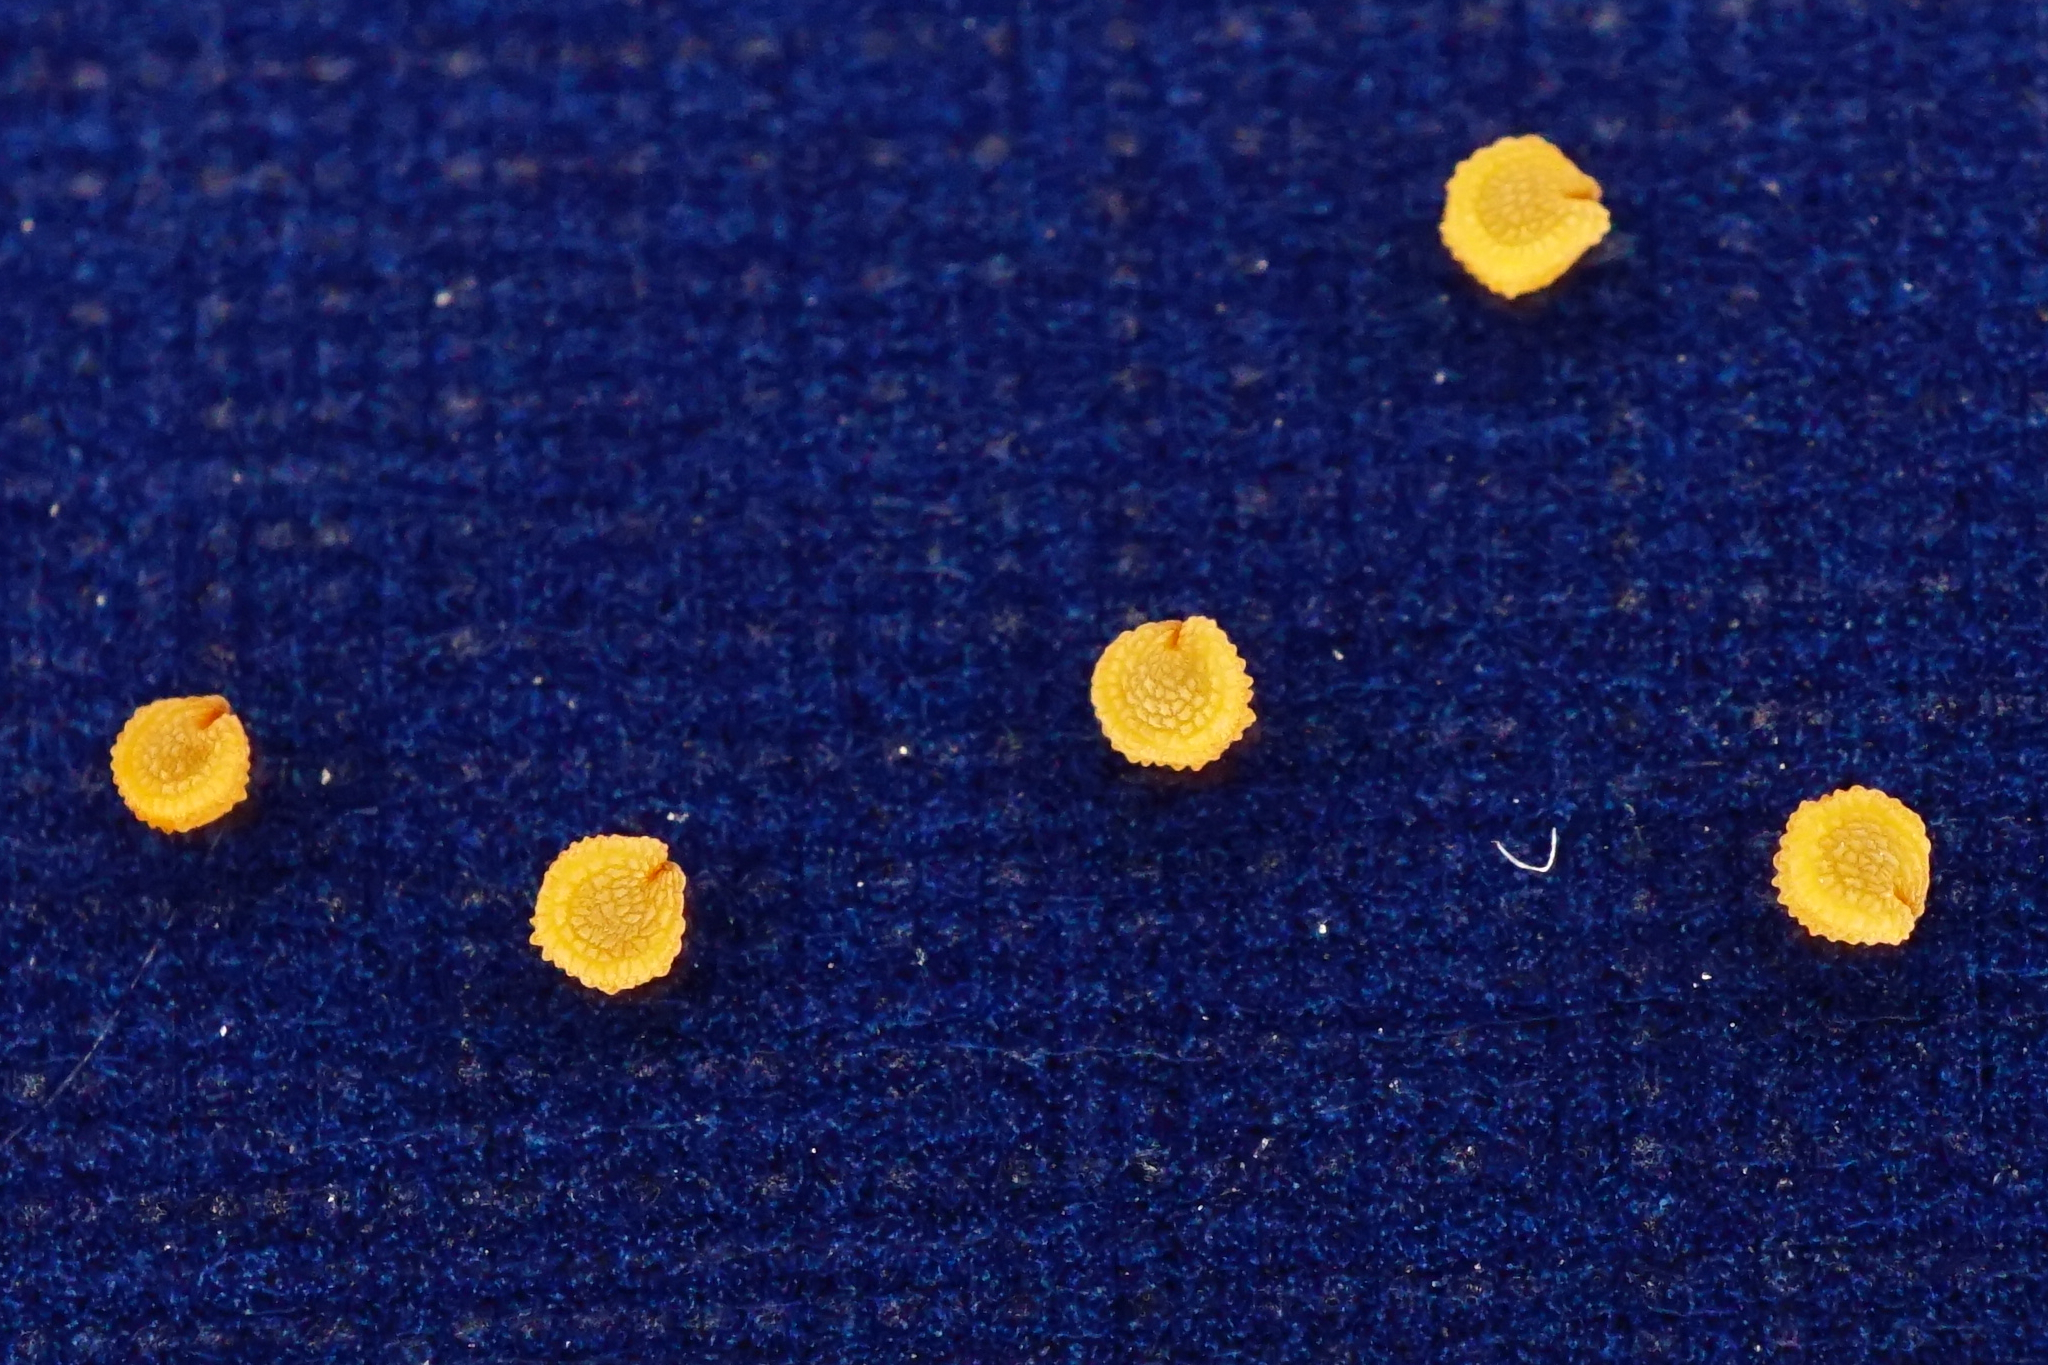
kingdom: Plantae
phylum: Tracheophyta
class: Magnoliopsida
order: Caryophyllales
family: Caryophyllaceae
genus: Stellaria
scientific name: Stellaria apetala
